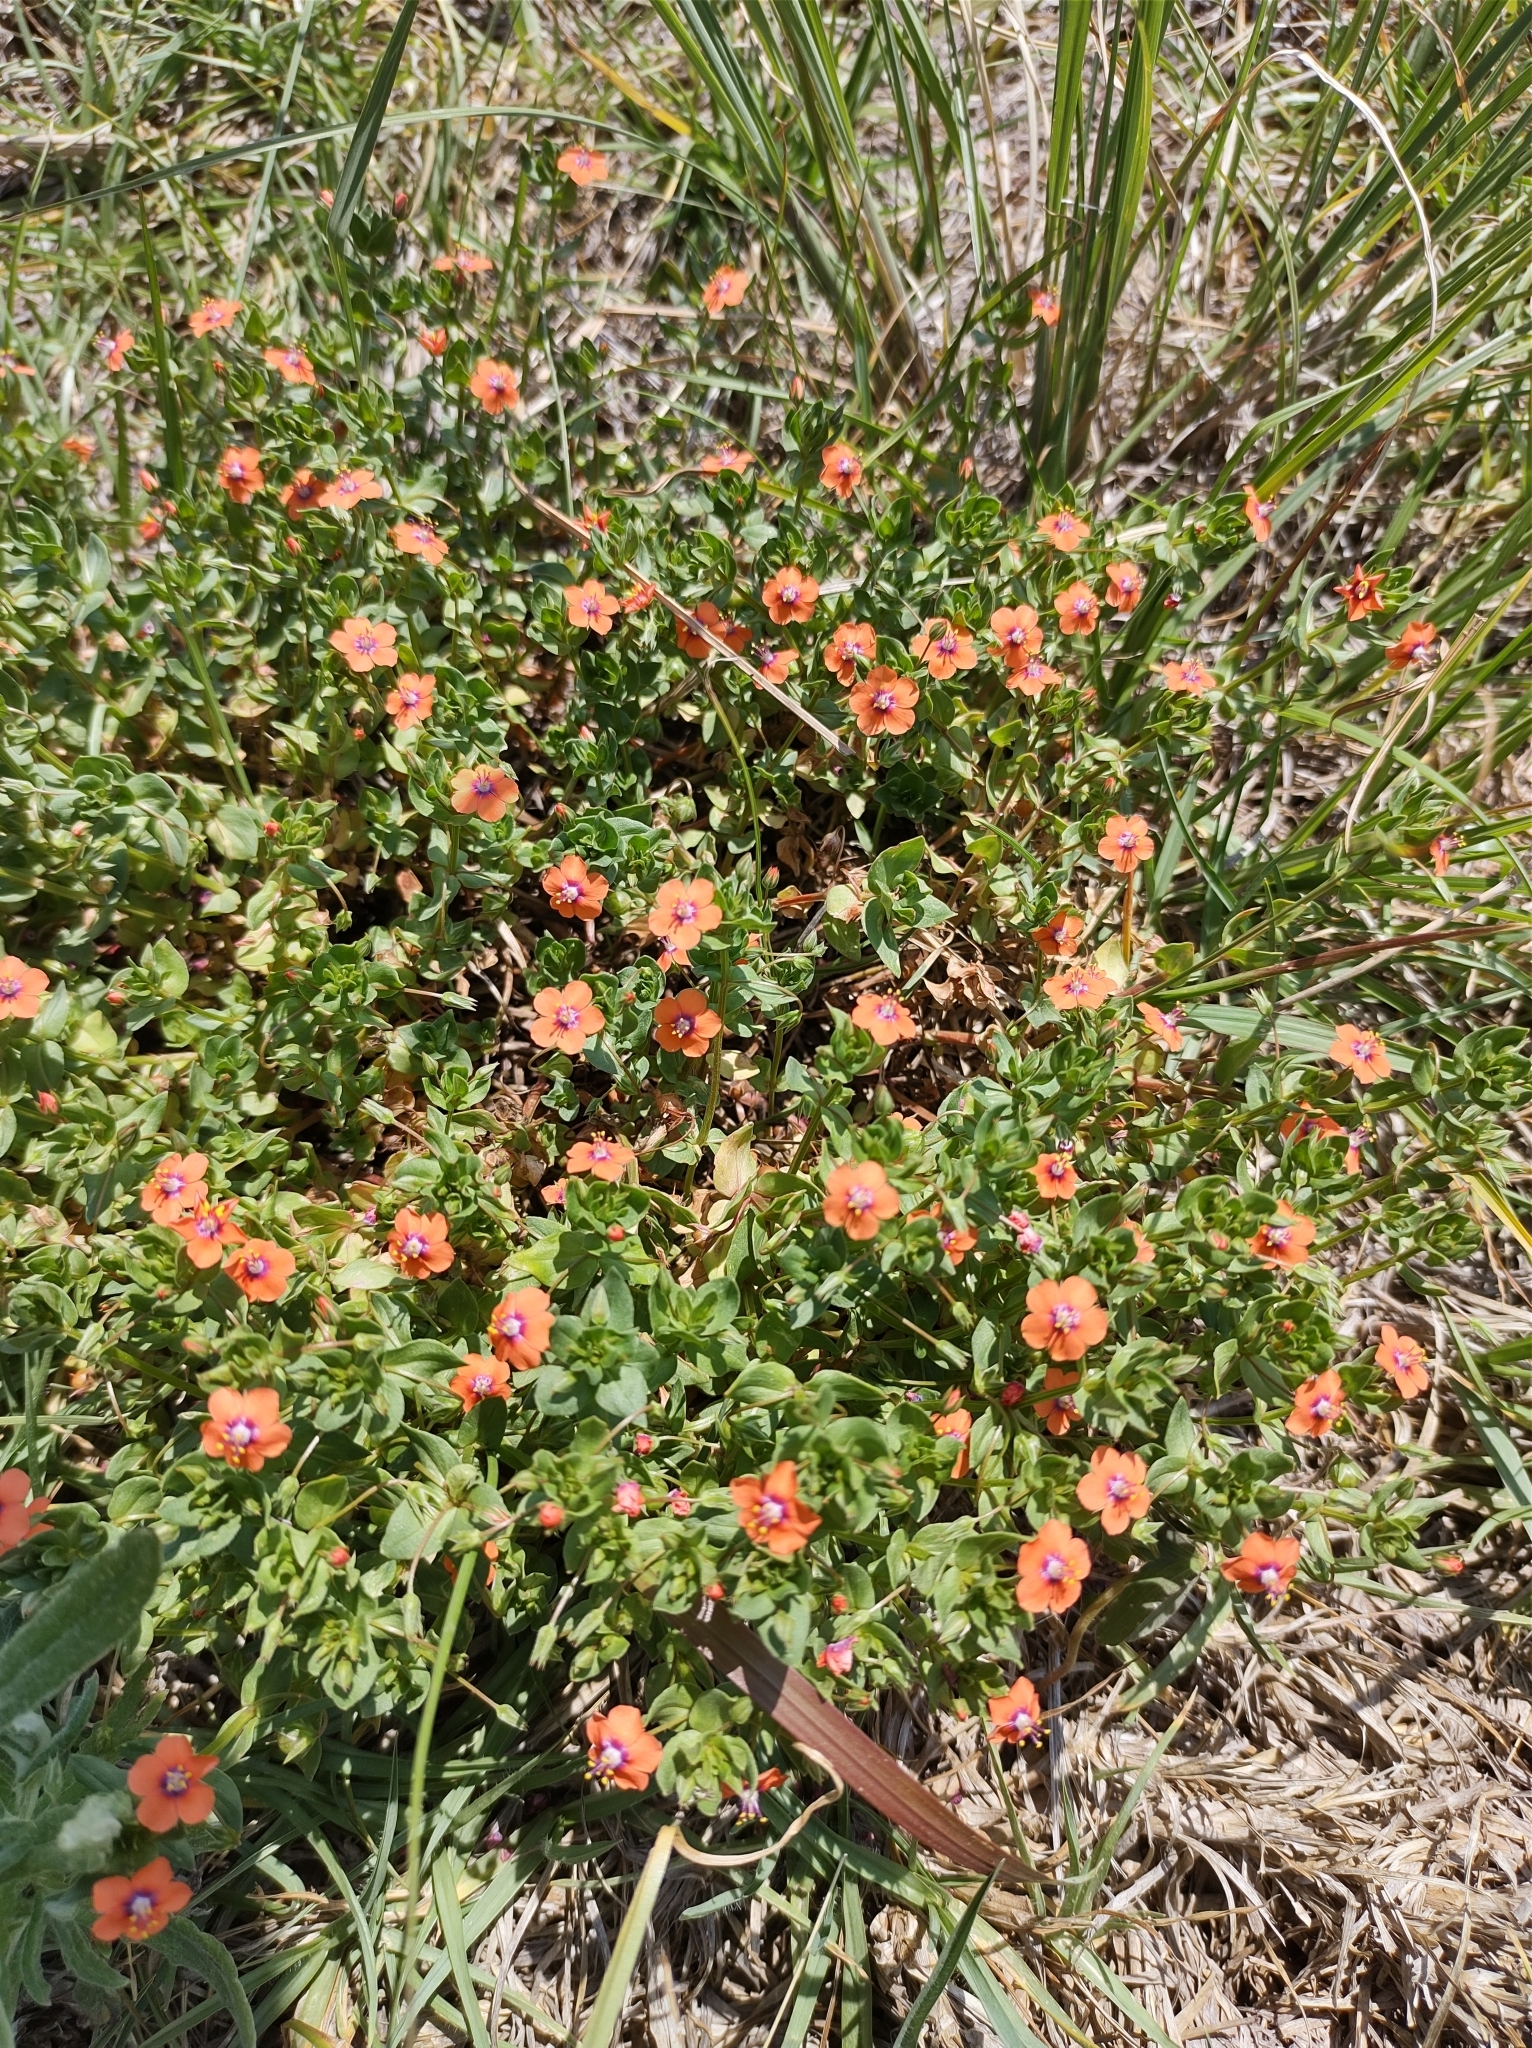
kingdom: Plantae
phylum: Tracheophyta
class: Magnoliopsida
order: Ericales
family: Primulaceae
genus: Lysimachia
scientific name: Lysimachia arvensis
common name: Scarlet pimpernel
